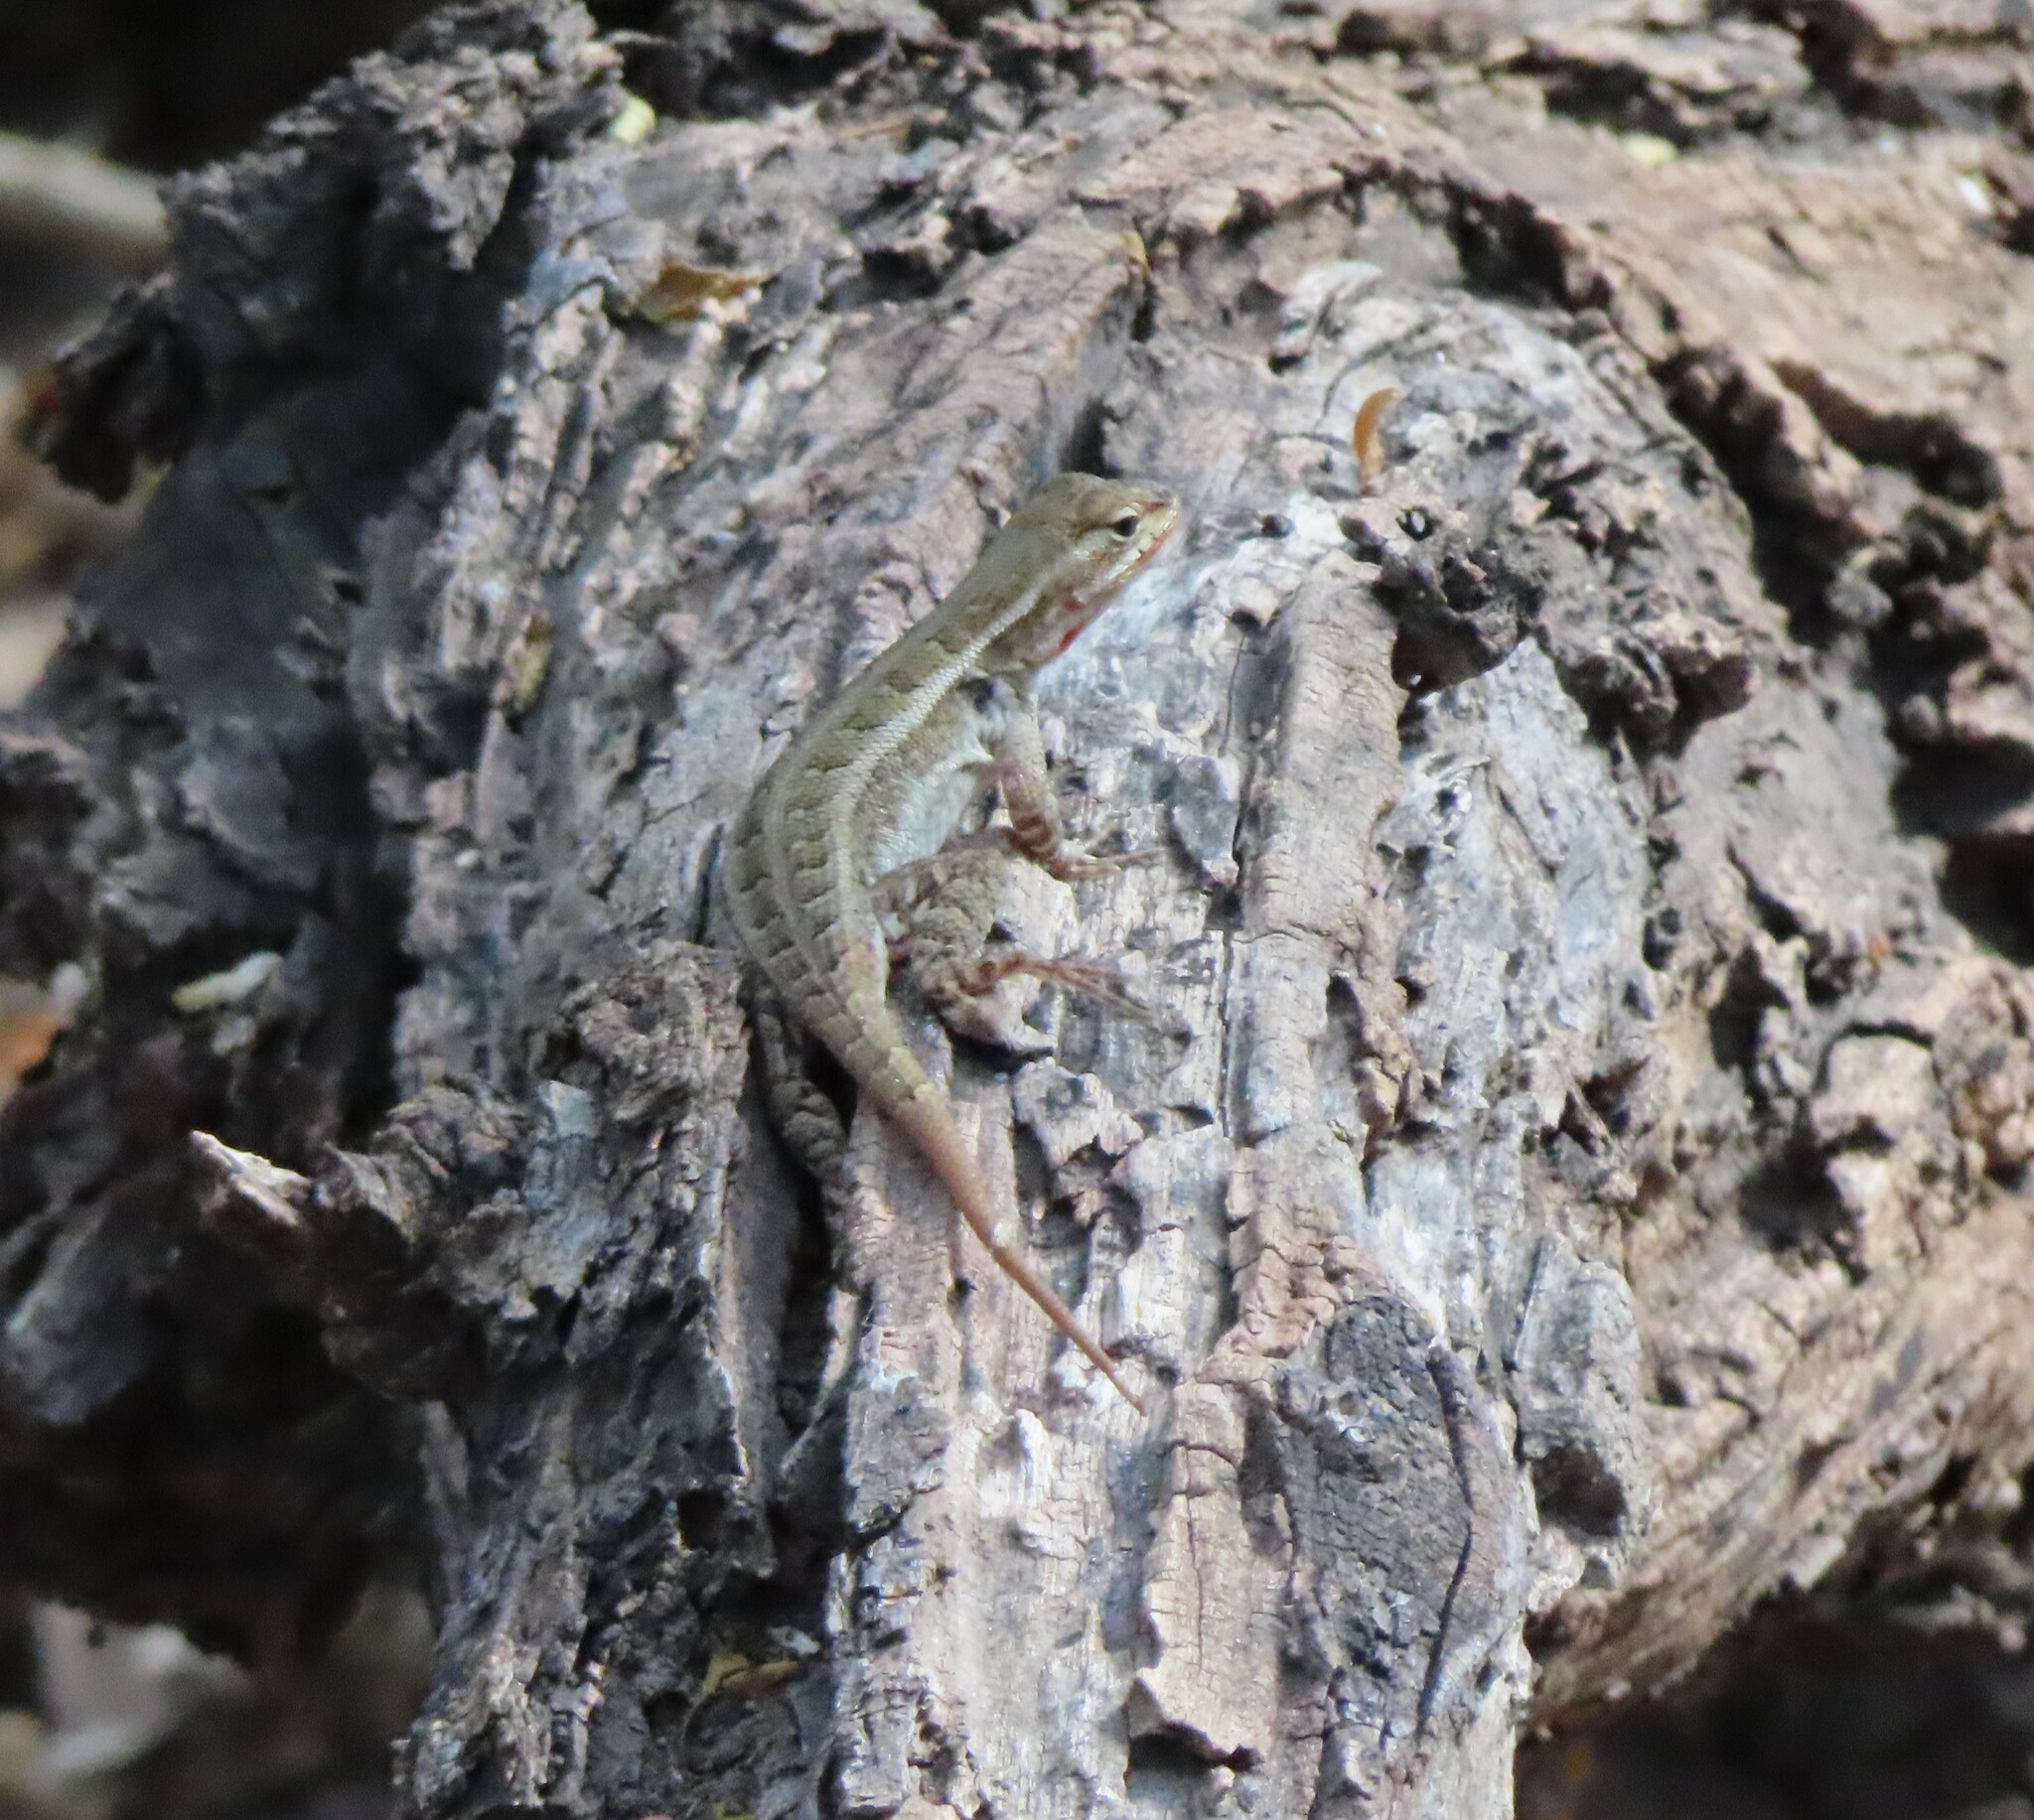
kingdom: Animalia
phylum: Chordata
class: Squamata
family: Phrynosomatidae
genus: Sceloporus
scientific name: Sceloporus variabilis
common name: Rosebelly lizard
